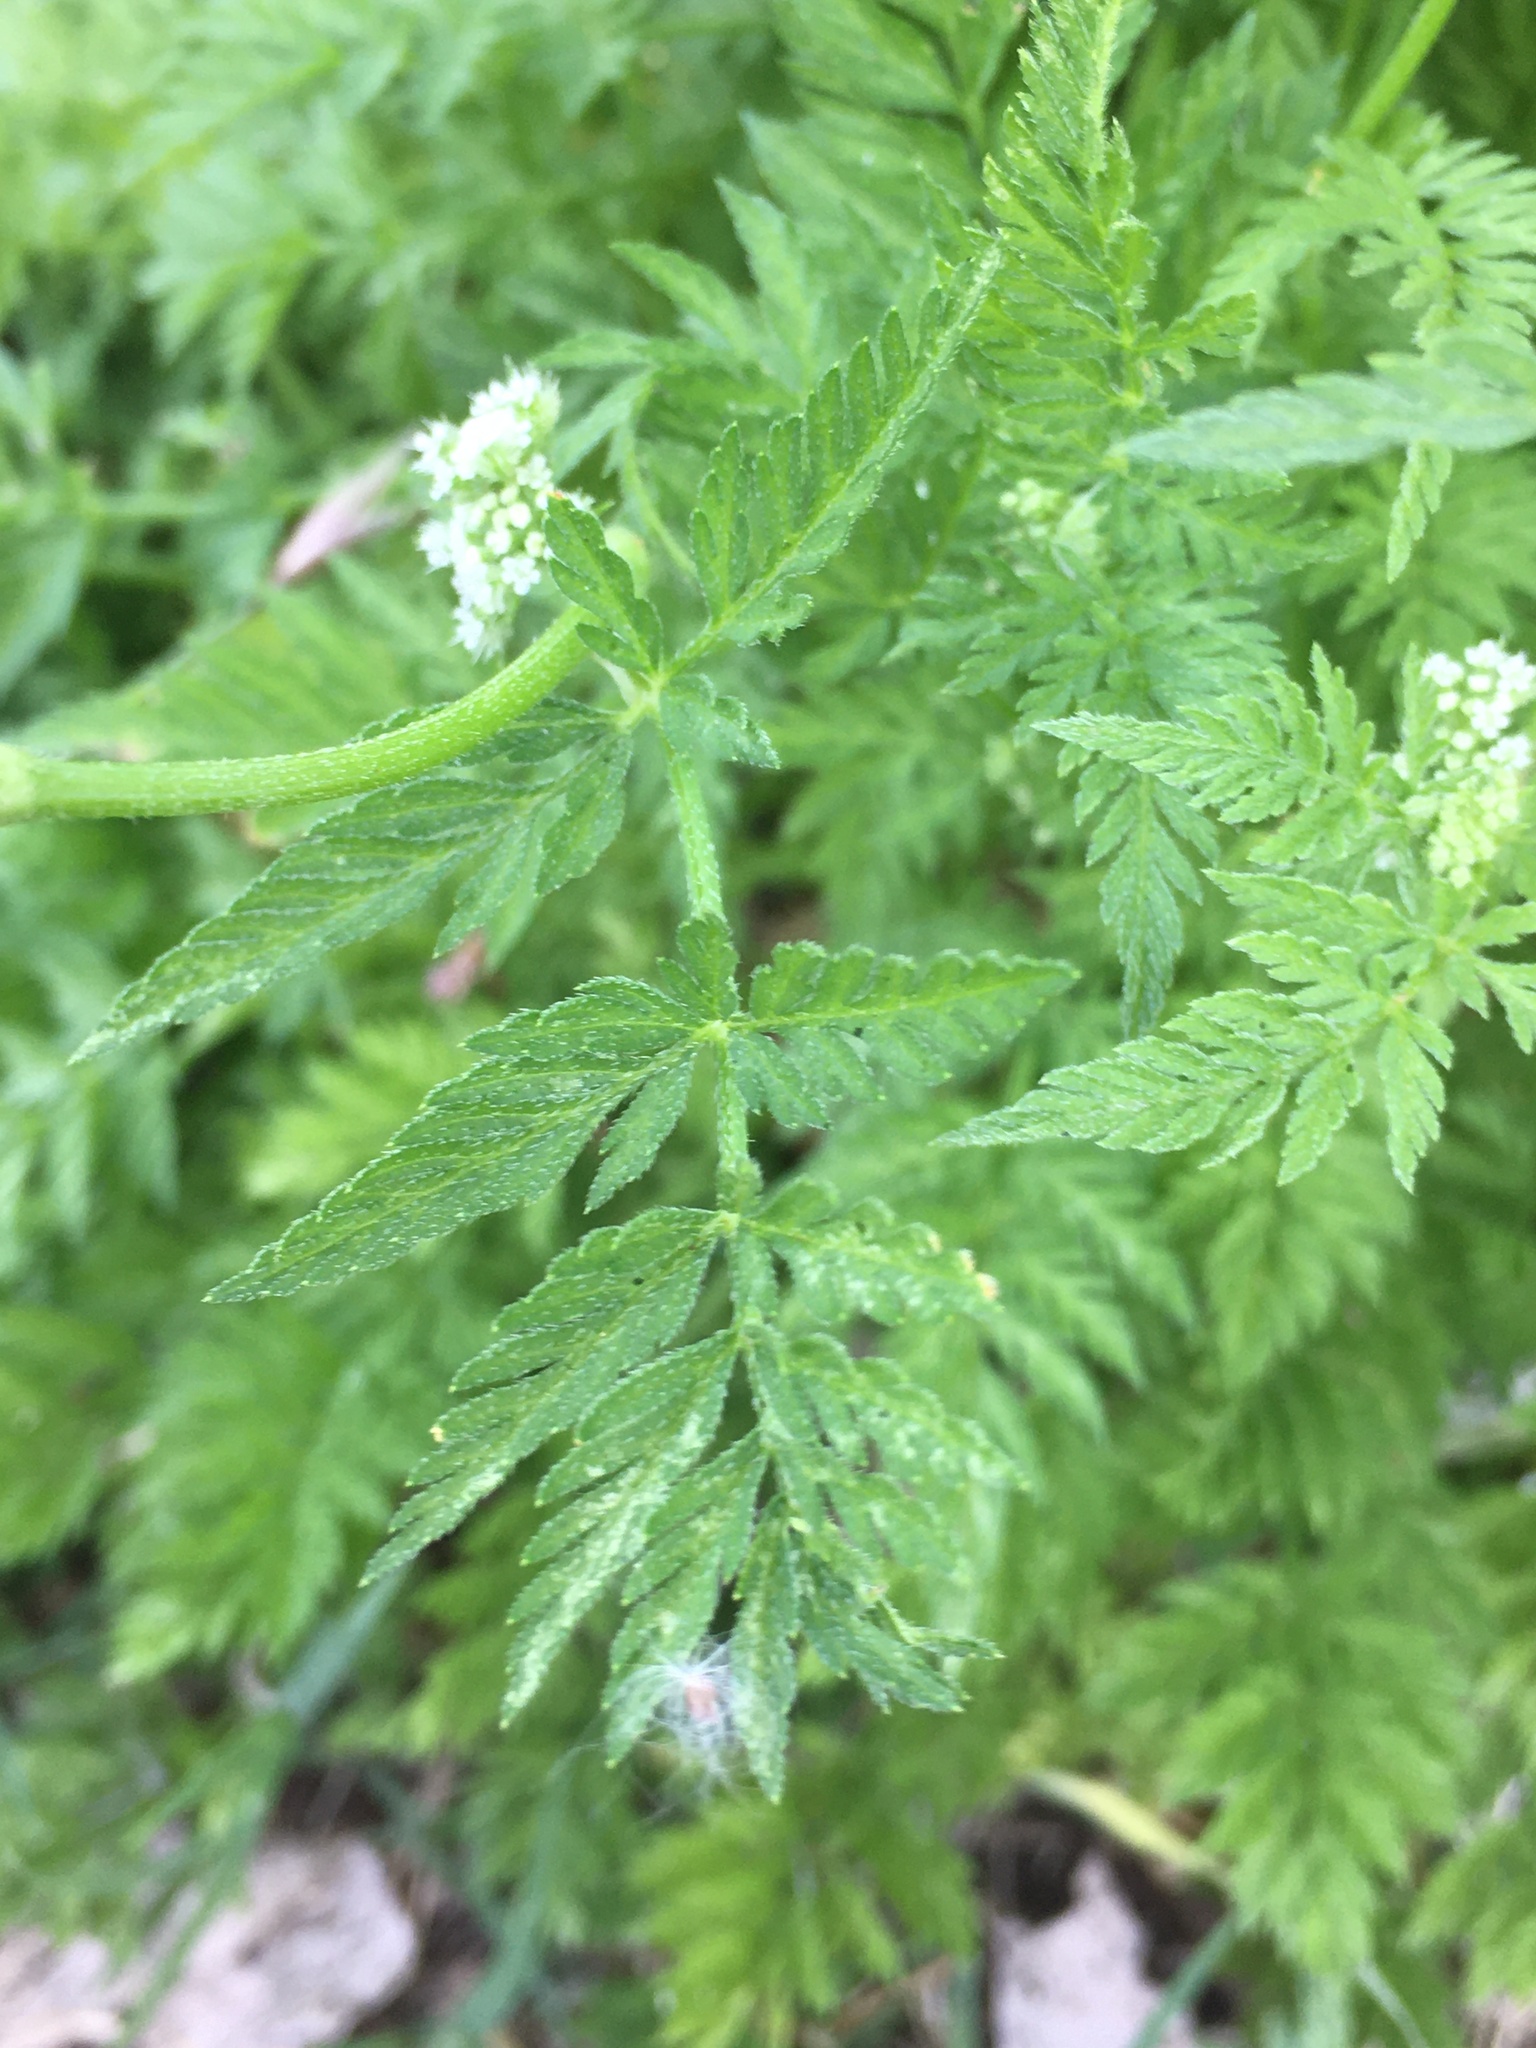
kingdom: Plantae
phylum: Tracheophyta
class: Magnoliopsida
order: Apiales
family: Apiaceae
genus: Torilis
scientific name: Torilis nodosa
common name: Knotted hedge-parsley
